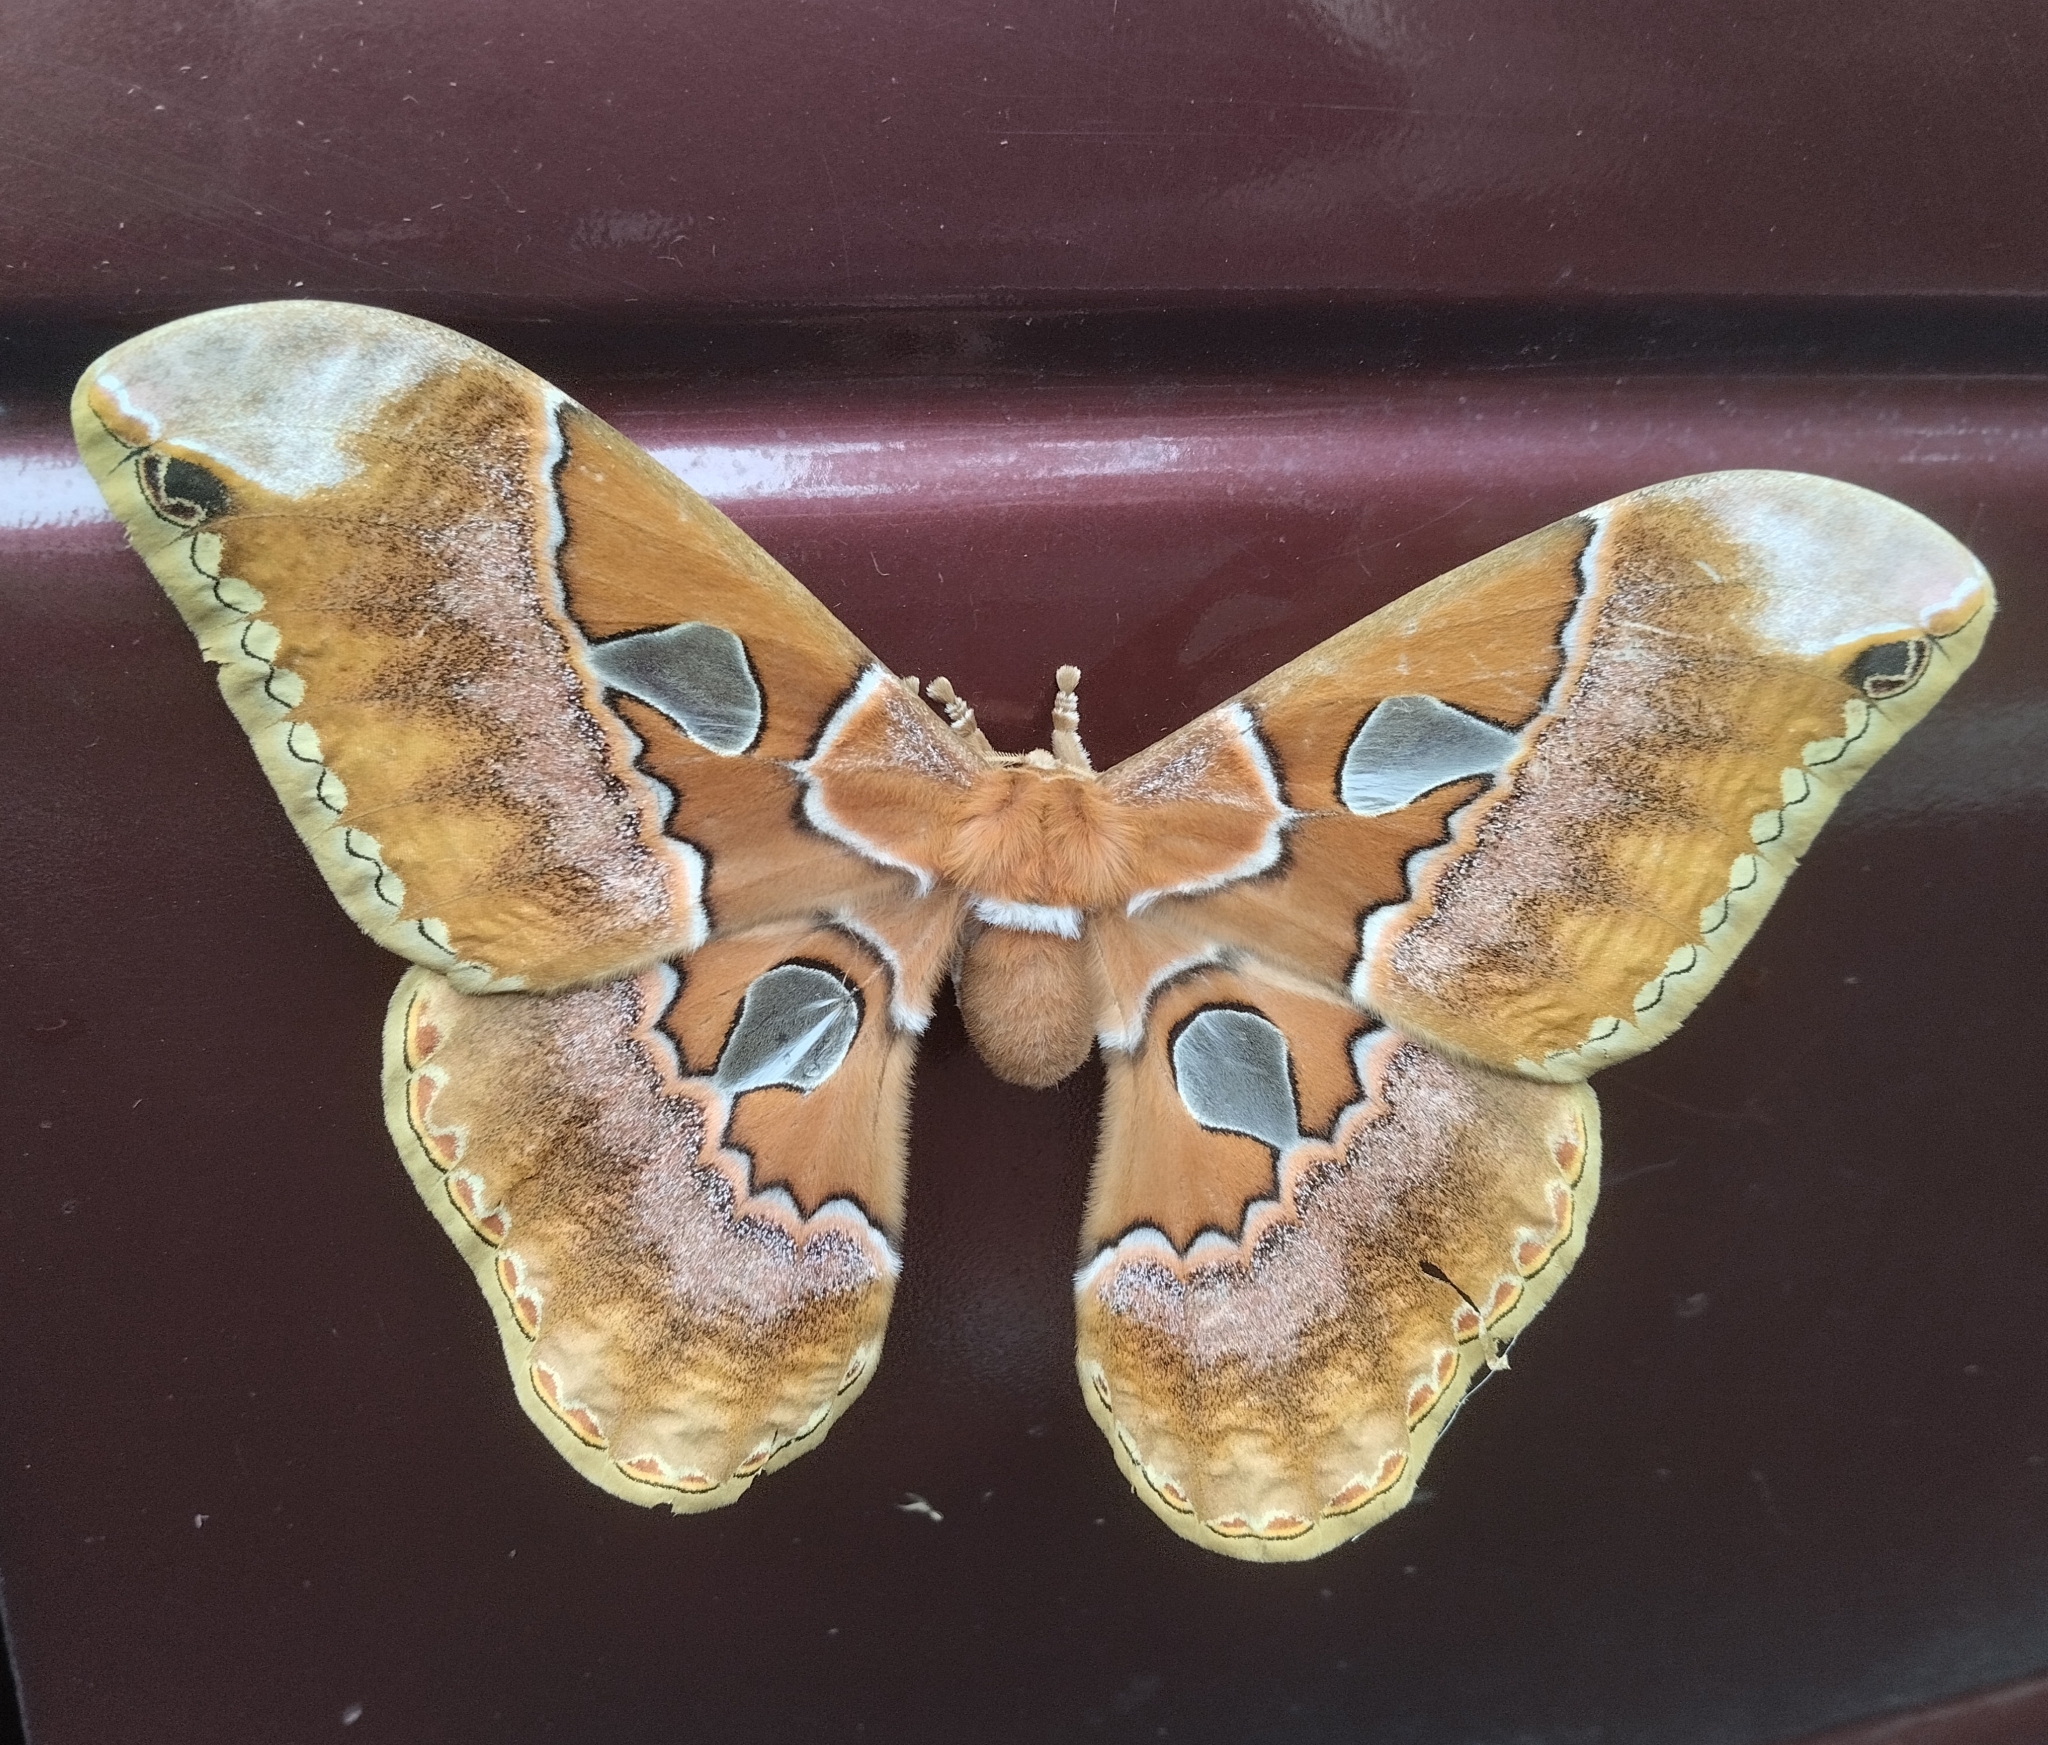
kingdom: Animalia
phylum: Arthropoda
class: Insecta
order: Lepidoptera
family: Saturniidae
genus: Rothschildia
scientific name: Rothschildia orizaba
